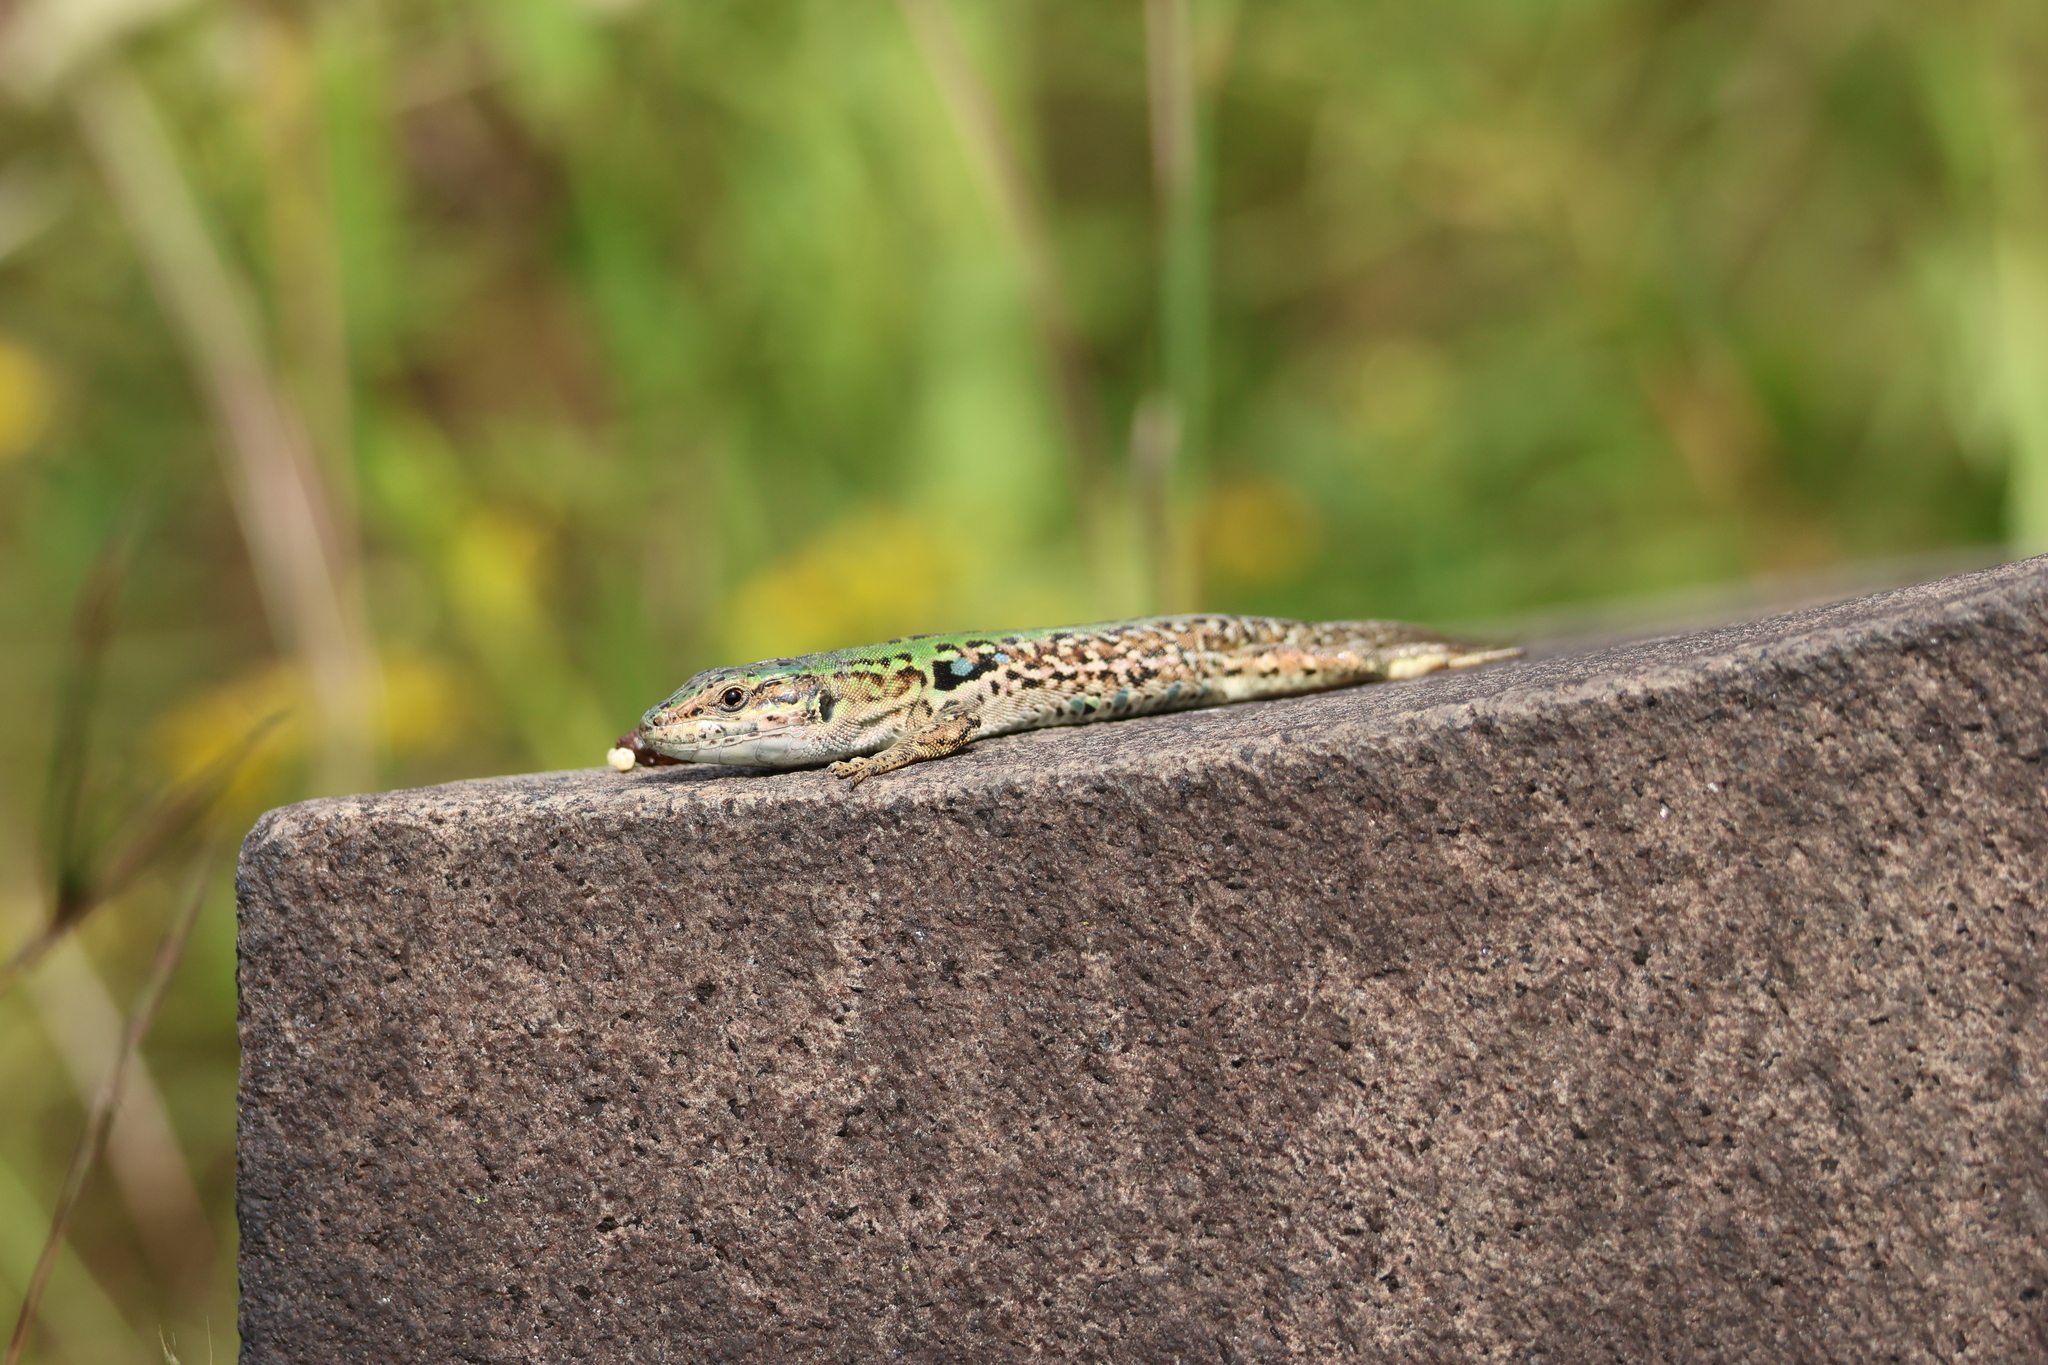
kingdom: Animalia
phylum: Chordata
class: Squamata
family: Lacertidae
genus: Podarcis
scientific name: Podarcis siculus
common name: Italian wall lizard
